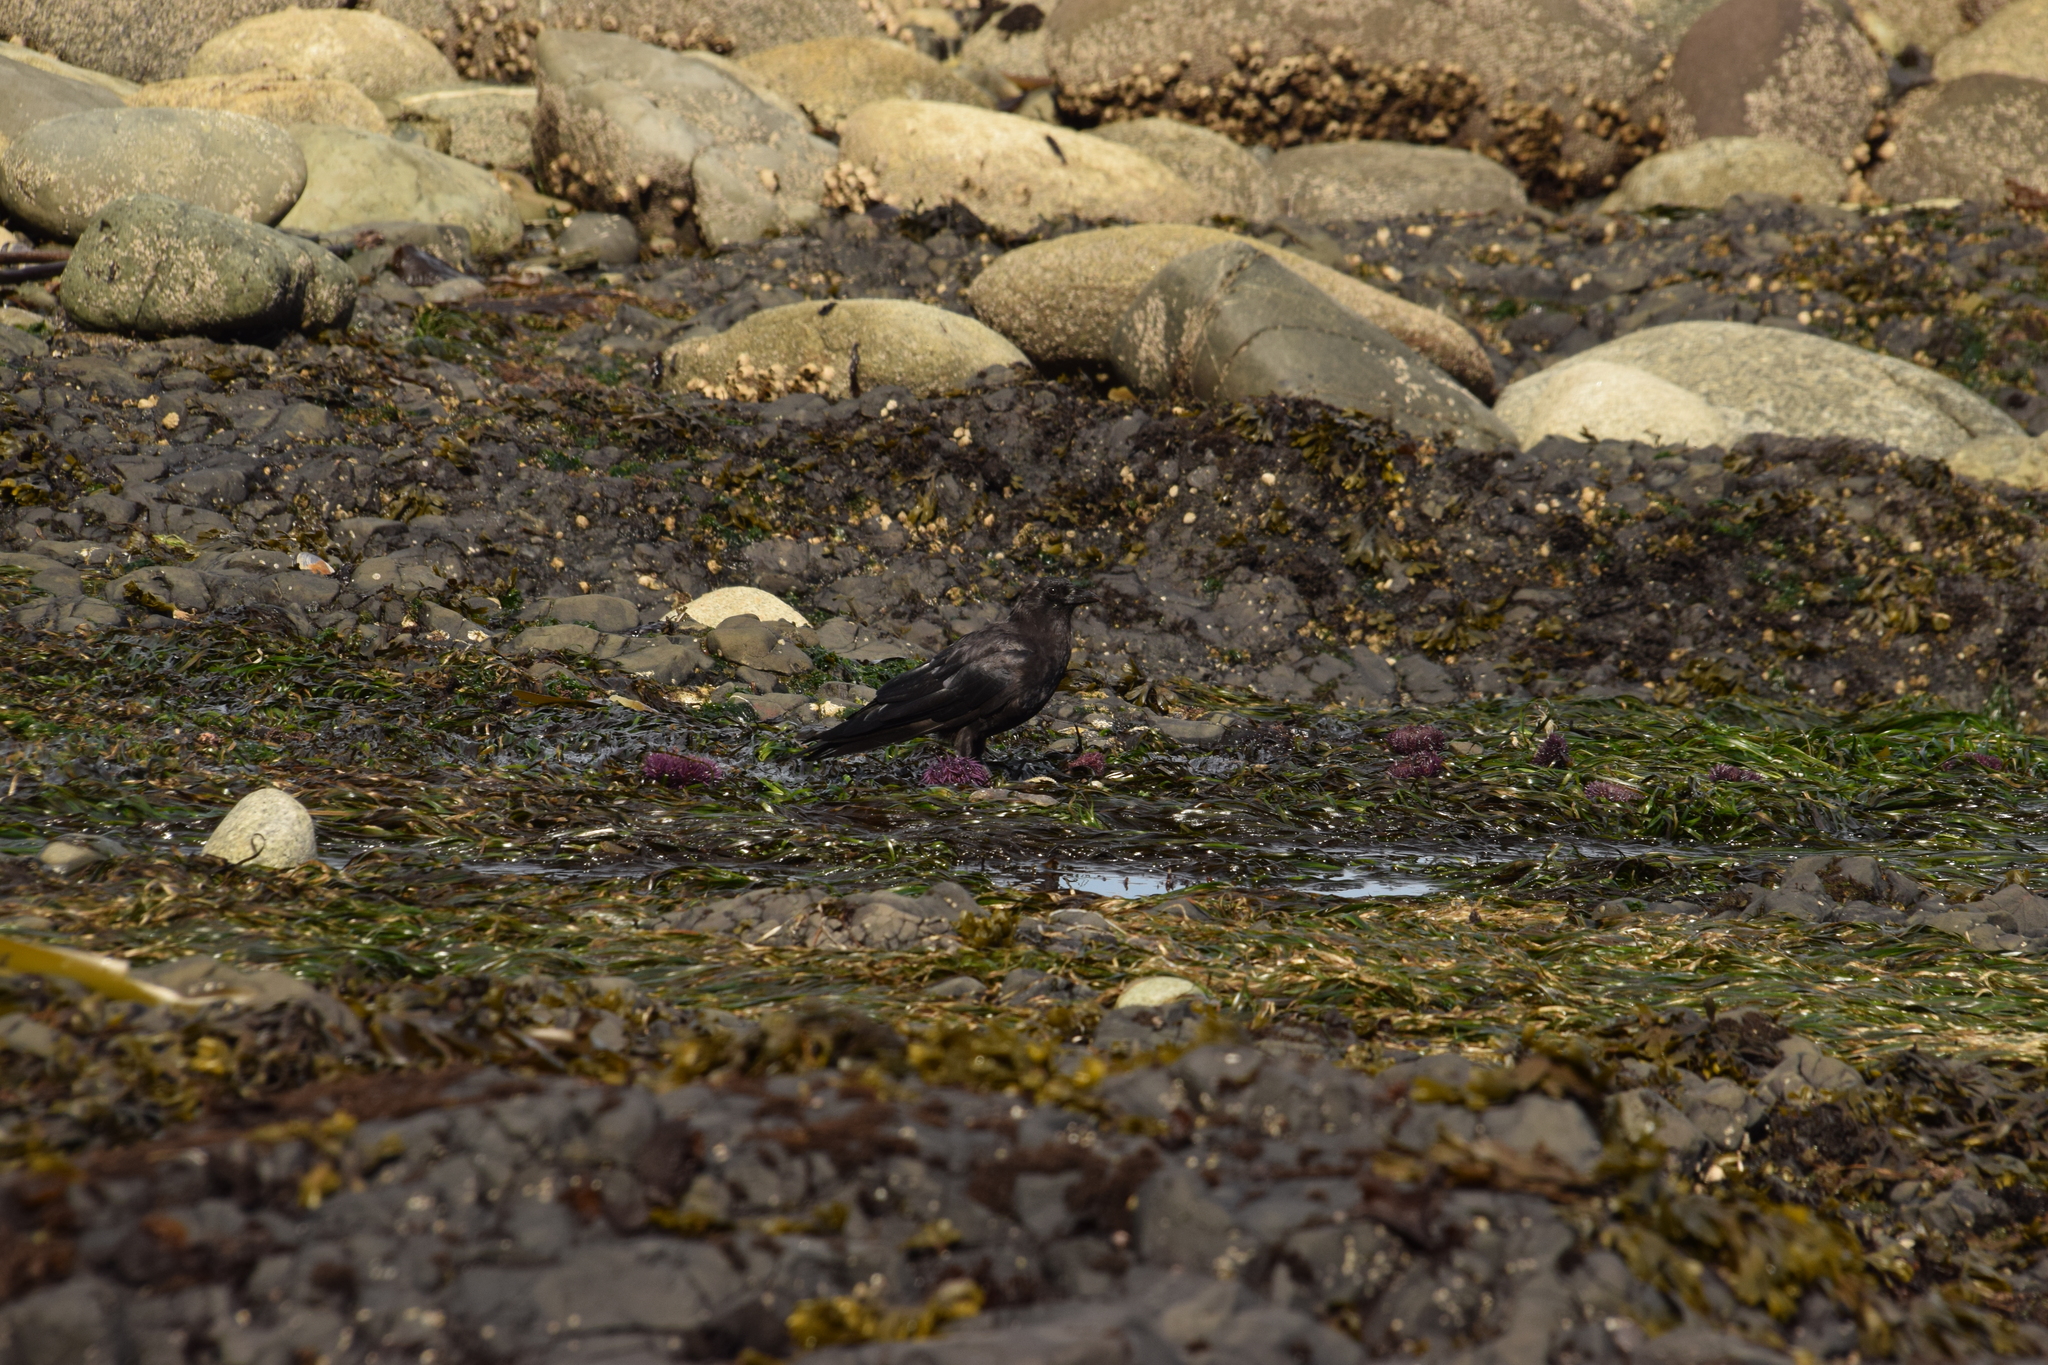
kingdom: Animalia
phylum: Chordata
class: Aves
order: Passeriformes
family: Corvidae
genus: Corvus
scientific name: Corvus brachyrhynchos
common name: American crow
